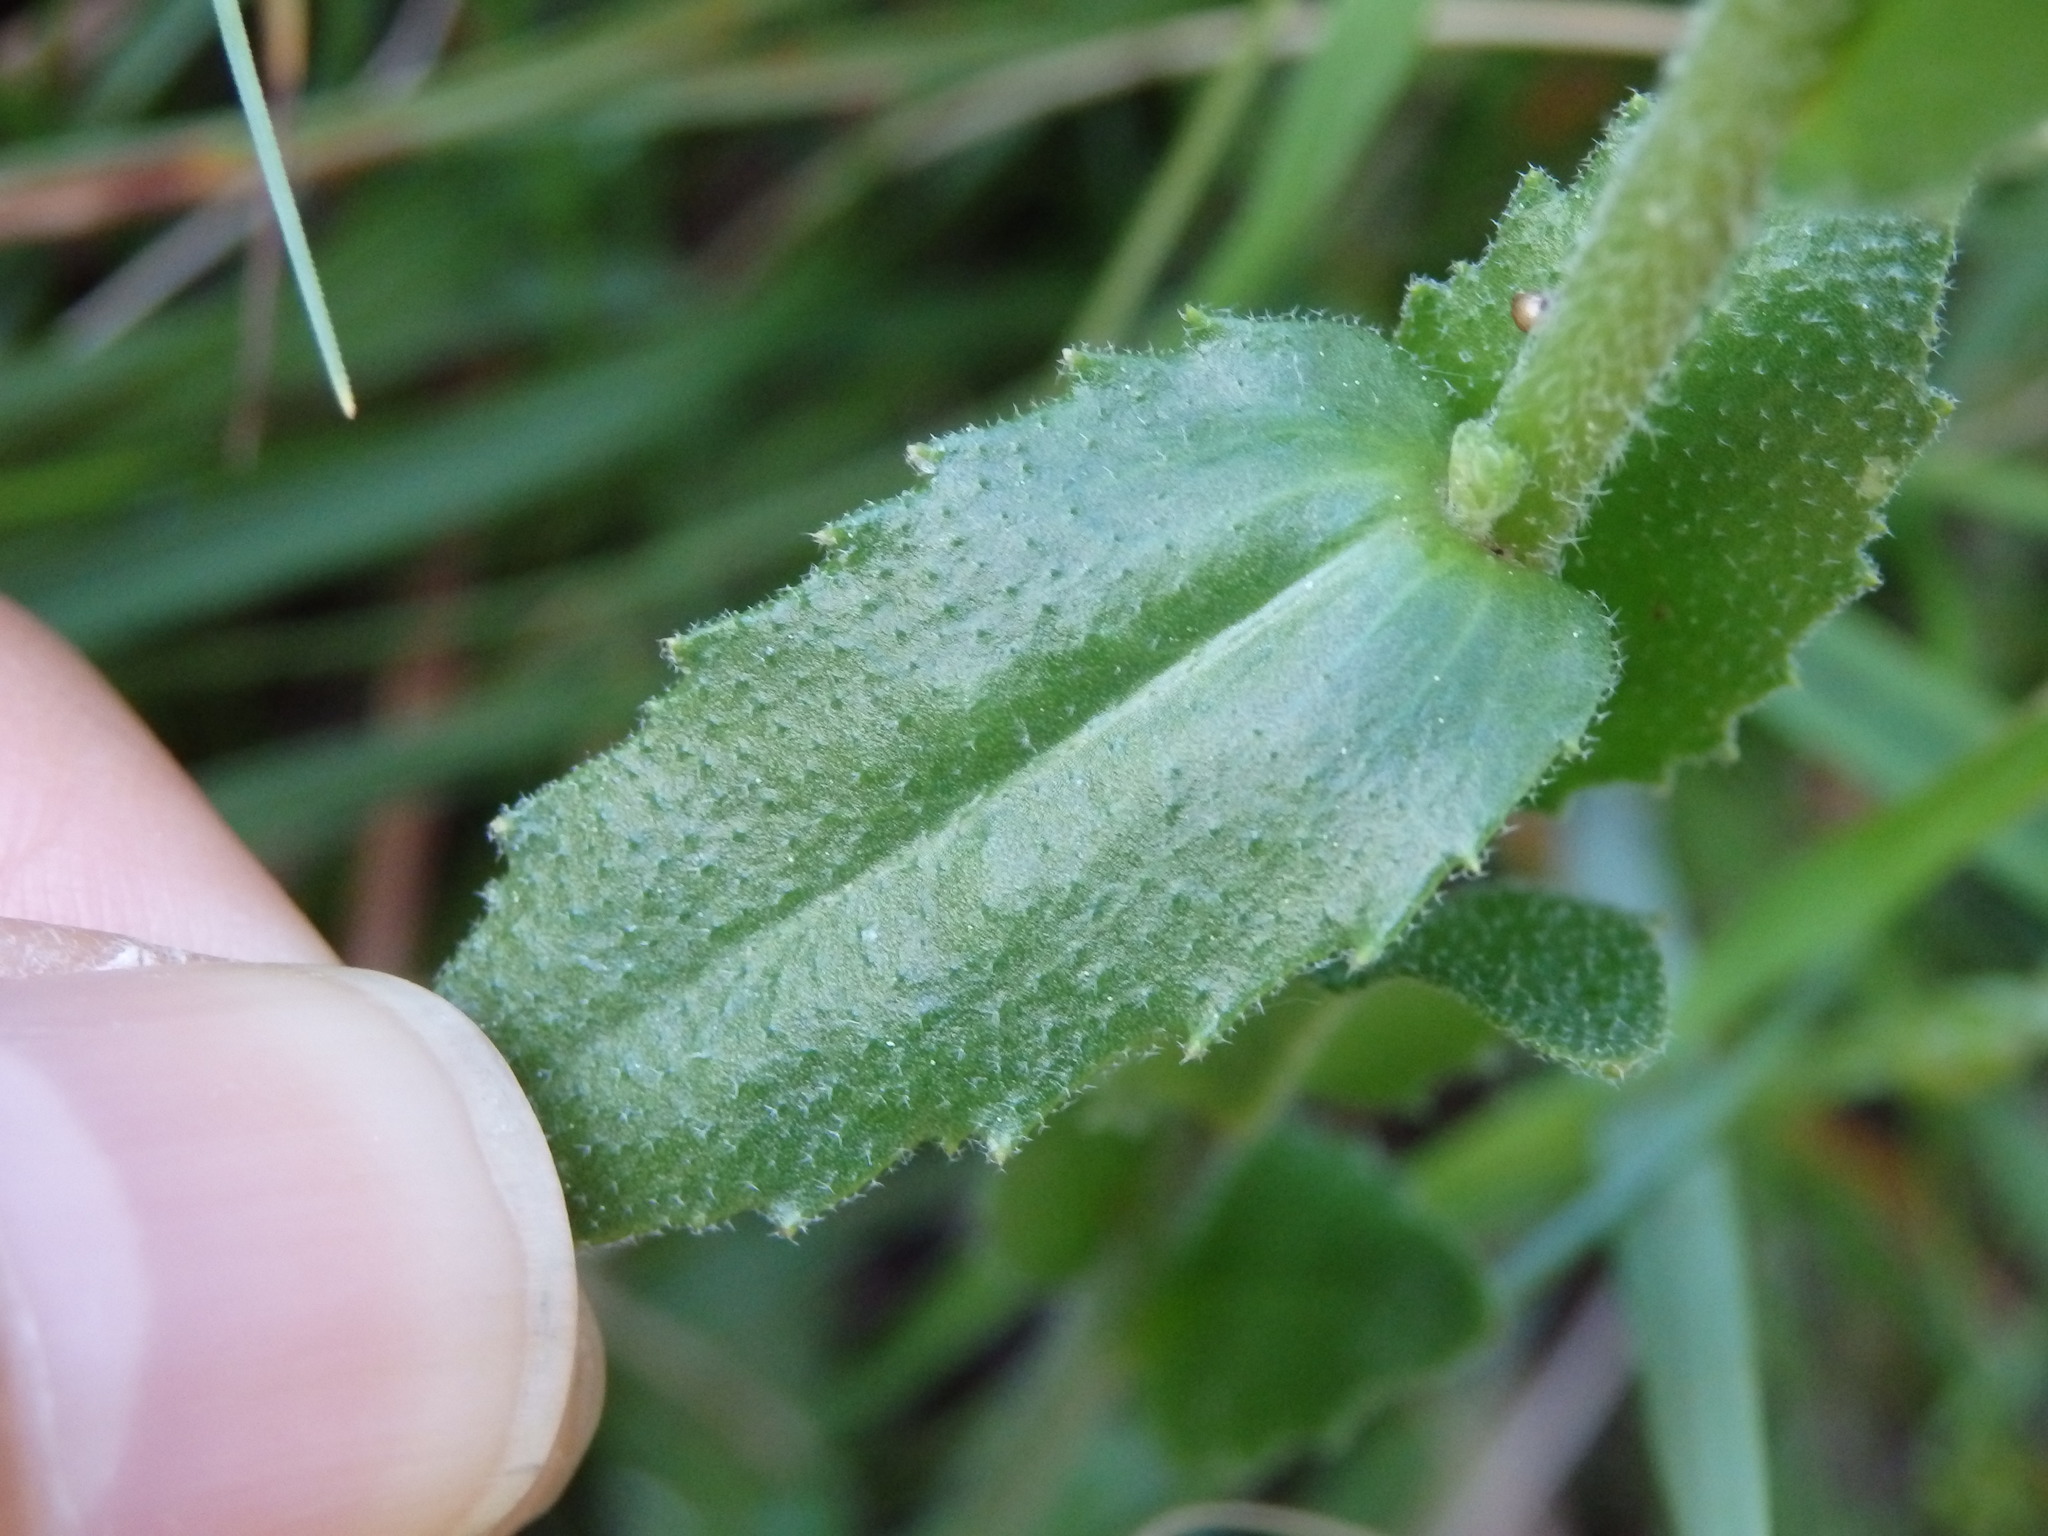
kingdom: Plantae
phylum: Tracheophyta
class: Magnoliopsida
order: Brassicales
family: Brassicaceae
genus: Arabis
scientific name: Arabis juressi
